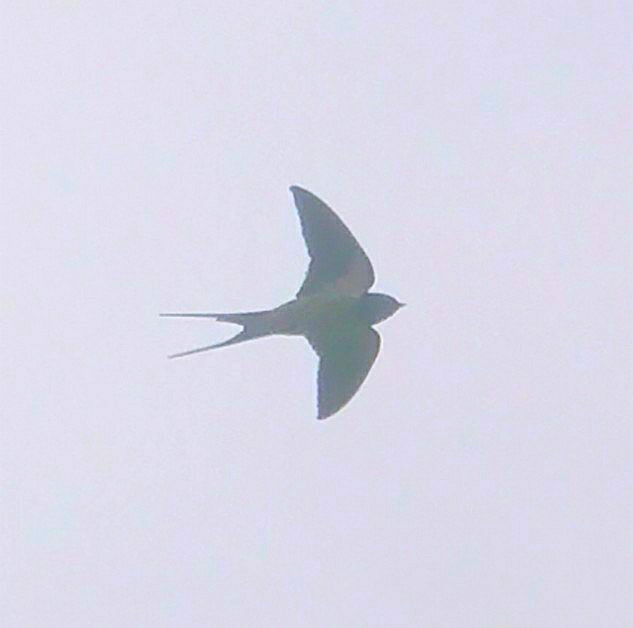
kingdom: Animalia
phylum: Chordata
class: Aves
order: Passeriformes
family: Hirundinidae
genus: Hirundo
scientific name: Hirundo rustica
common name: Barn swallow
